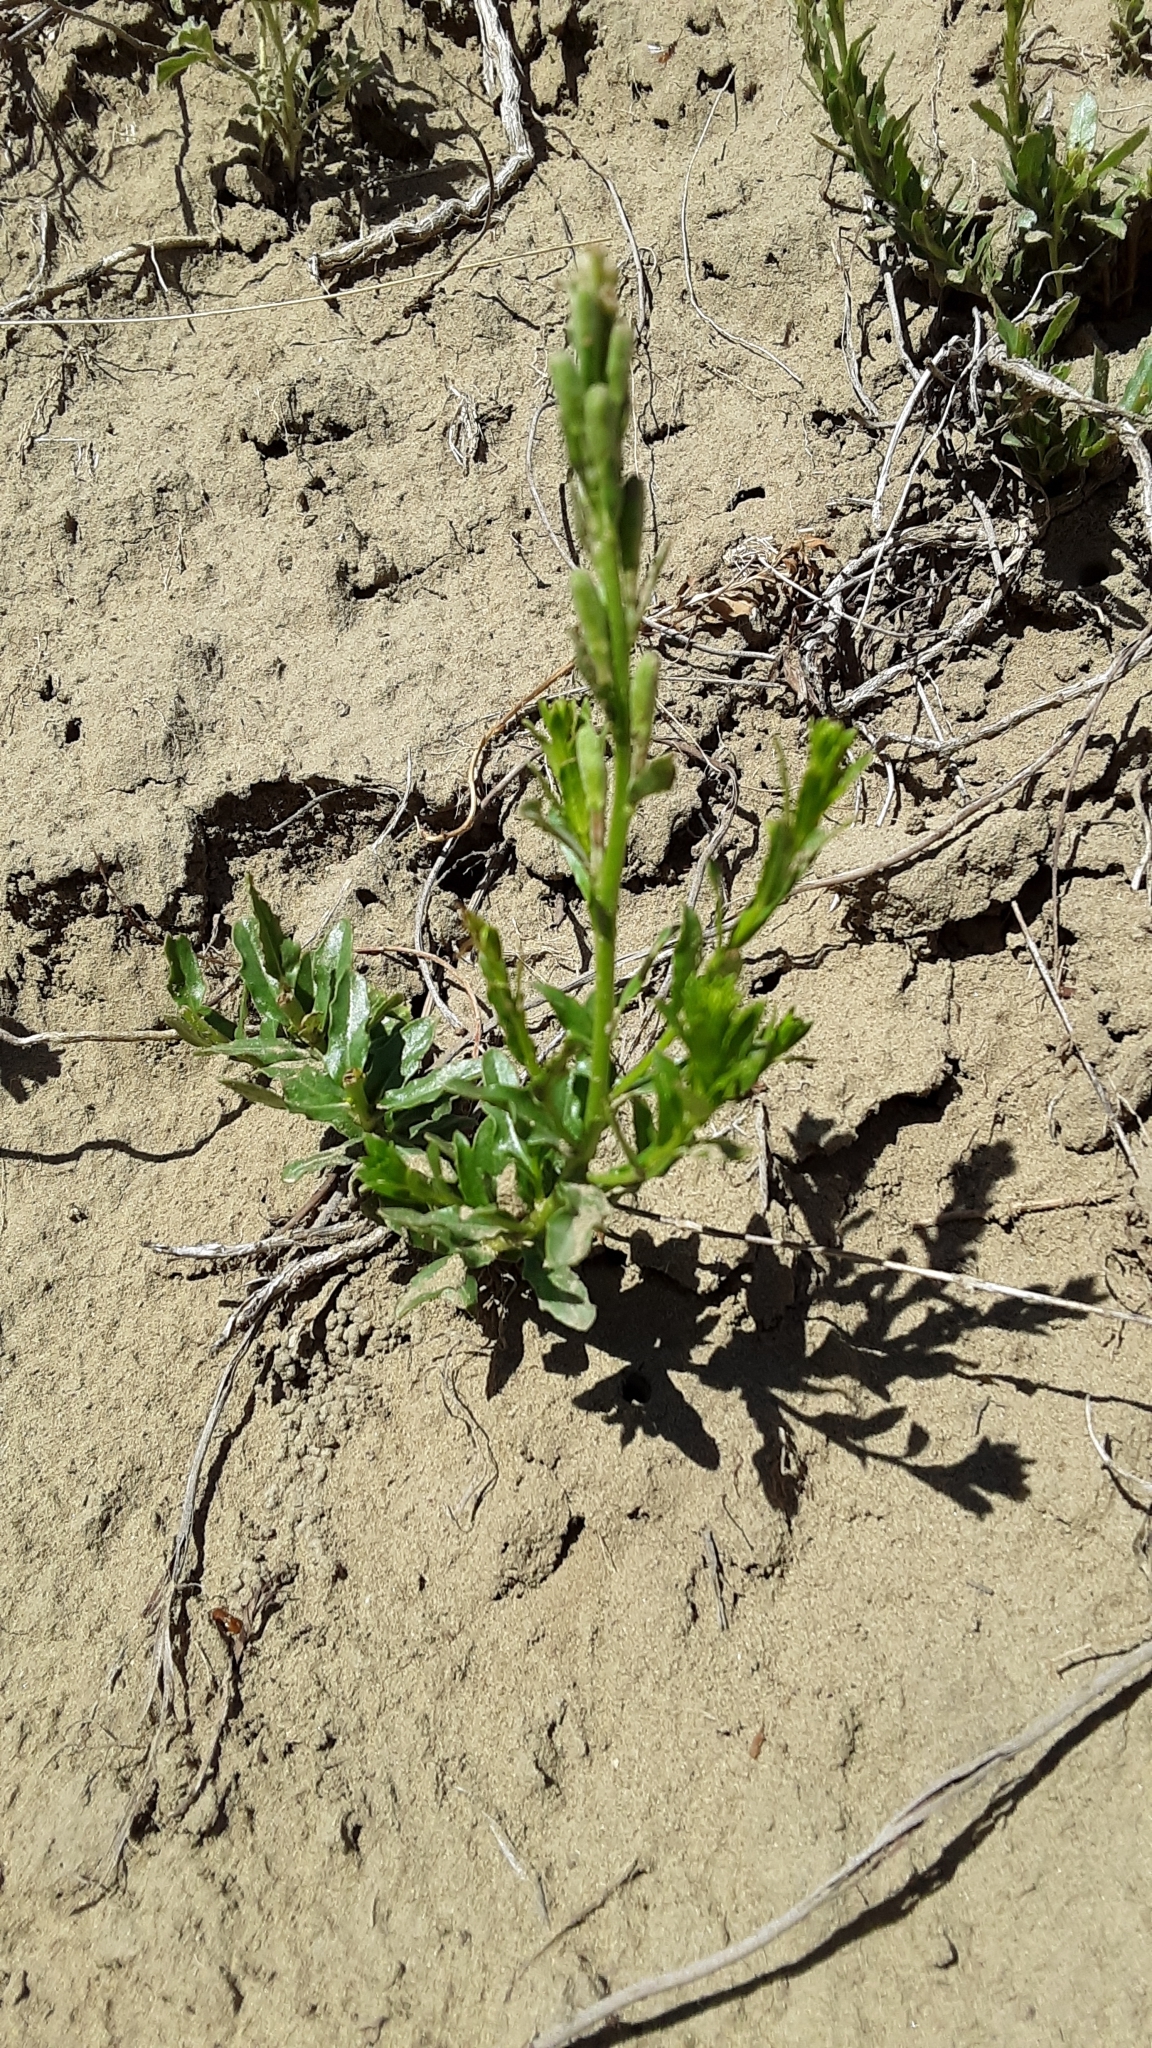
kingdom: Plantae
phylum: Tracheophyta
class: Magnoliopsida
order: Myrtales
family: Onagraceae
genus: Oenothera
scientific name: Oenothera suffrutescens
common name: Scarlet beeblossom
